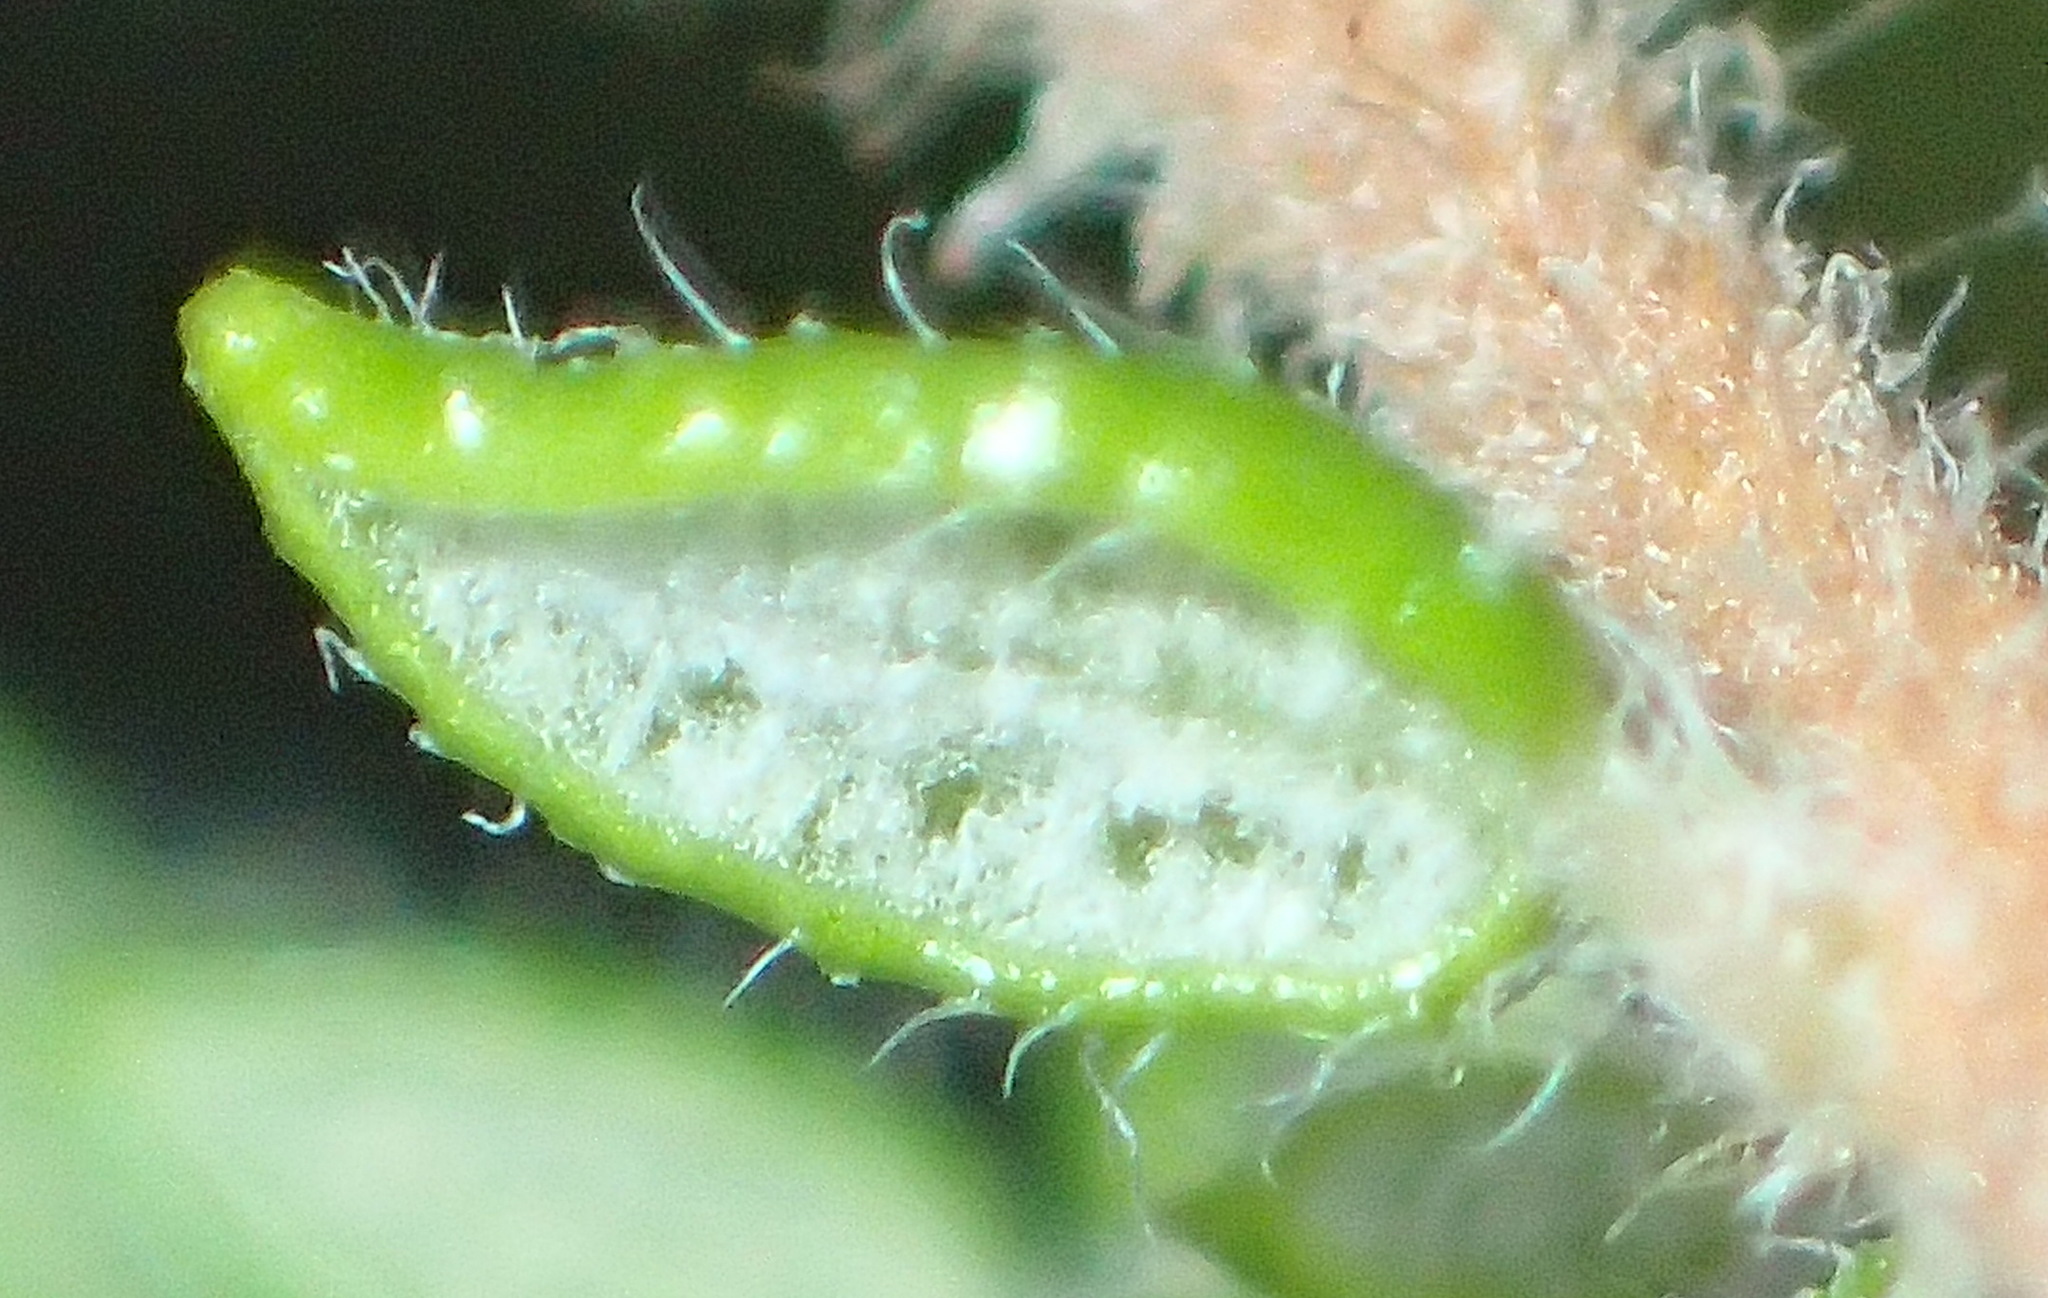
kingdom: Plantae
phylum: Tracheophyta
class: Magnoliopsida
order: Ericales
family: Ericaceae
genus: Erica
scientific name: Erica cordata
